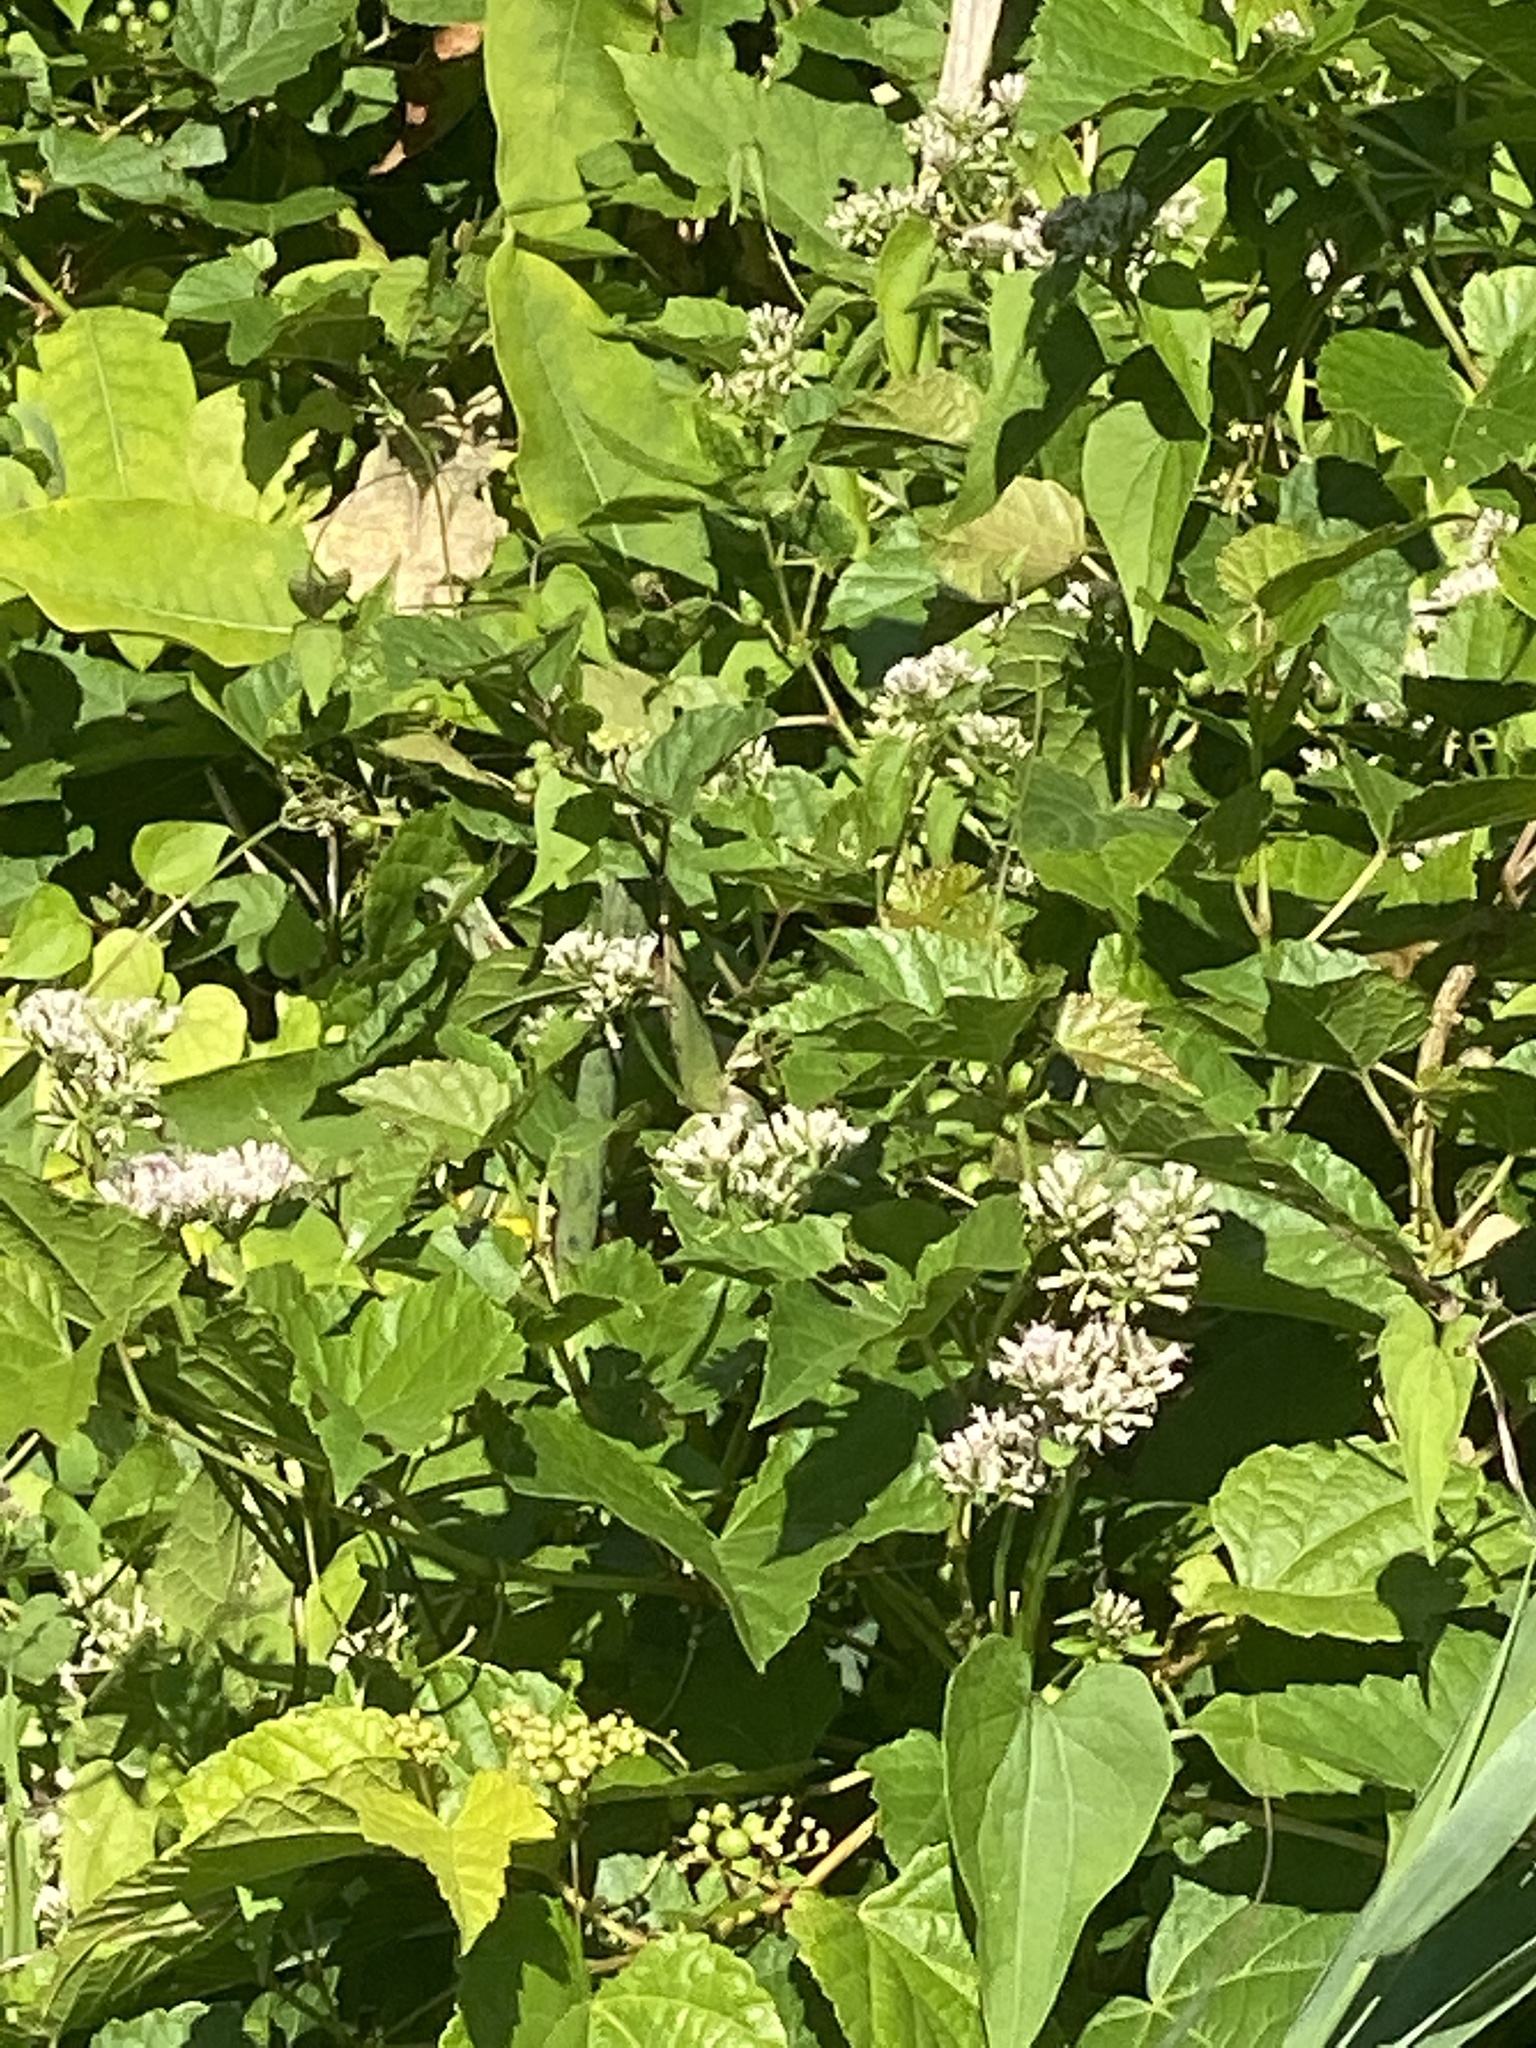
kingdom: Plantae
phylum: Tracheophyta
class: Magnoliopsida
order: Asterales
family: Asteraceae
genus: Mikania
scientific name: Mikania scandens
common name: Climbing hempvine
